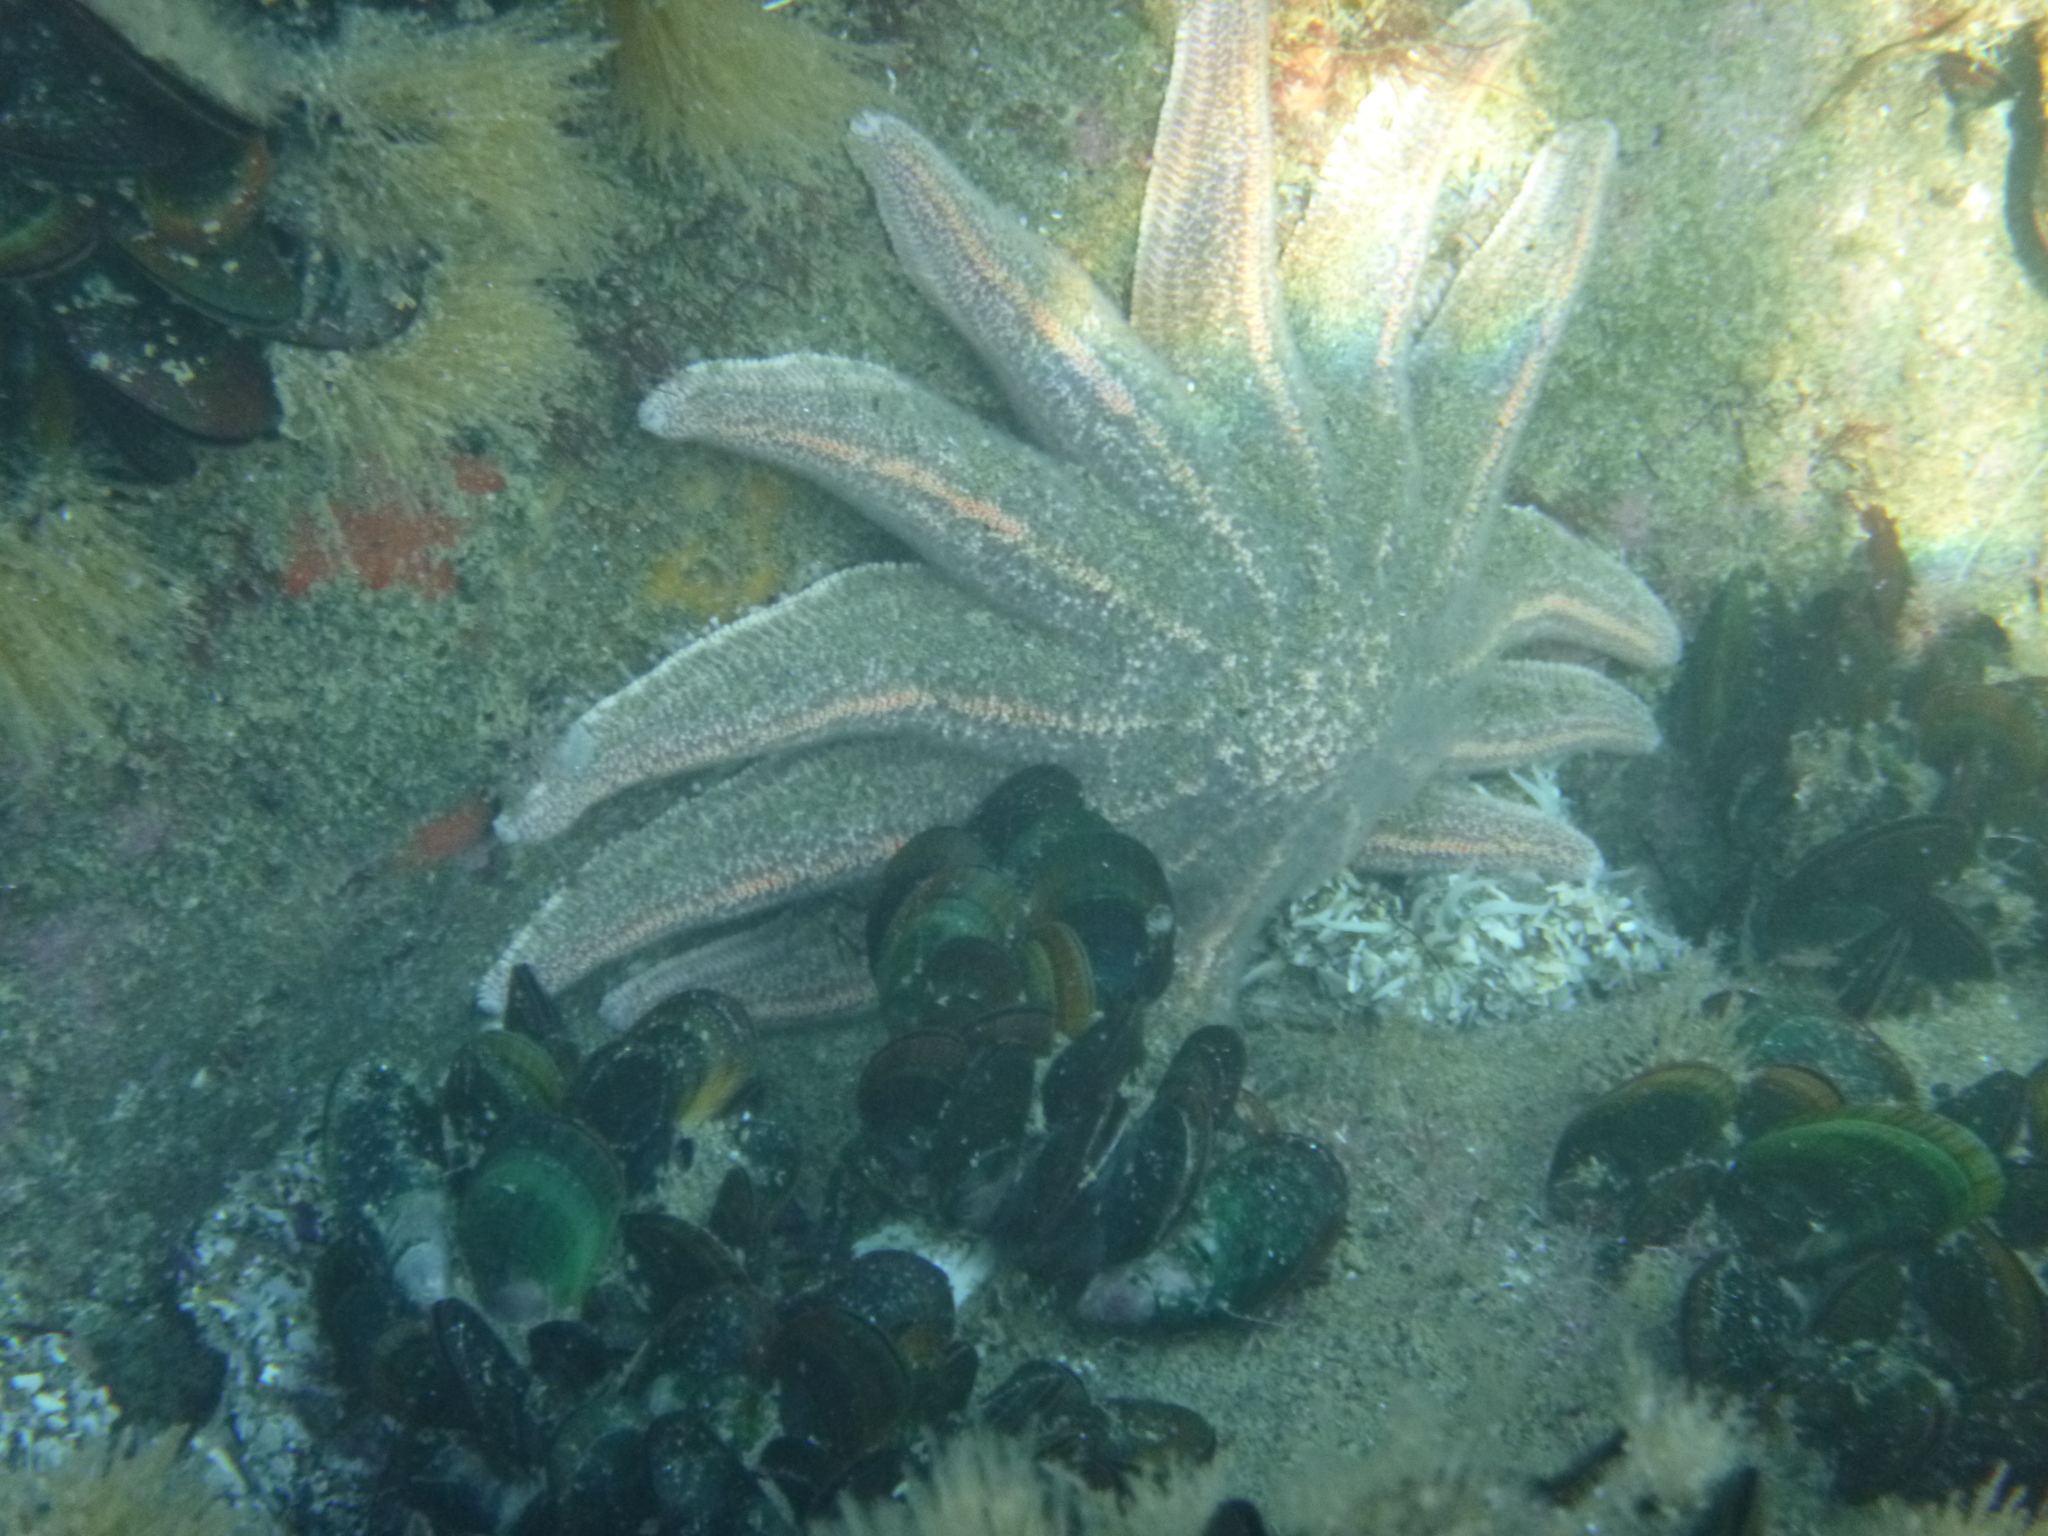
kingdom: Animalia
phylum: Echinodermata
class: Asteroidea
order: Forcipulatida
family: Stichasteridae
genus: Stichaster
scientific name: Stichaster australis
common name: Reef starfish
